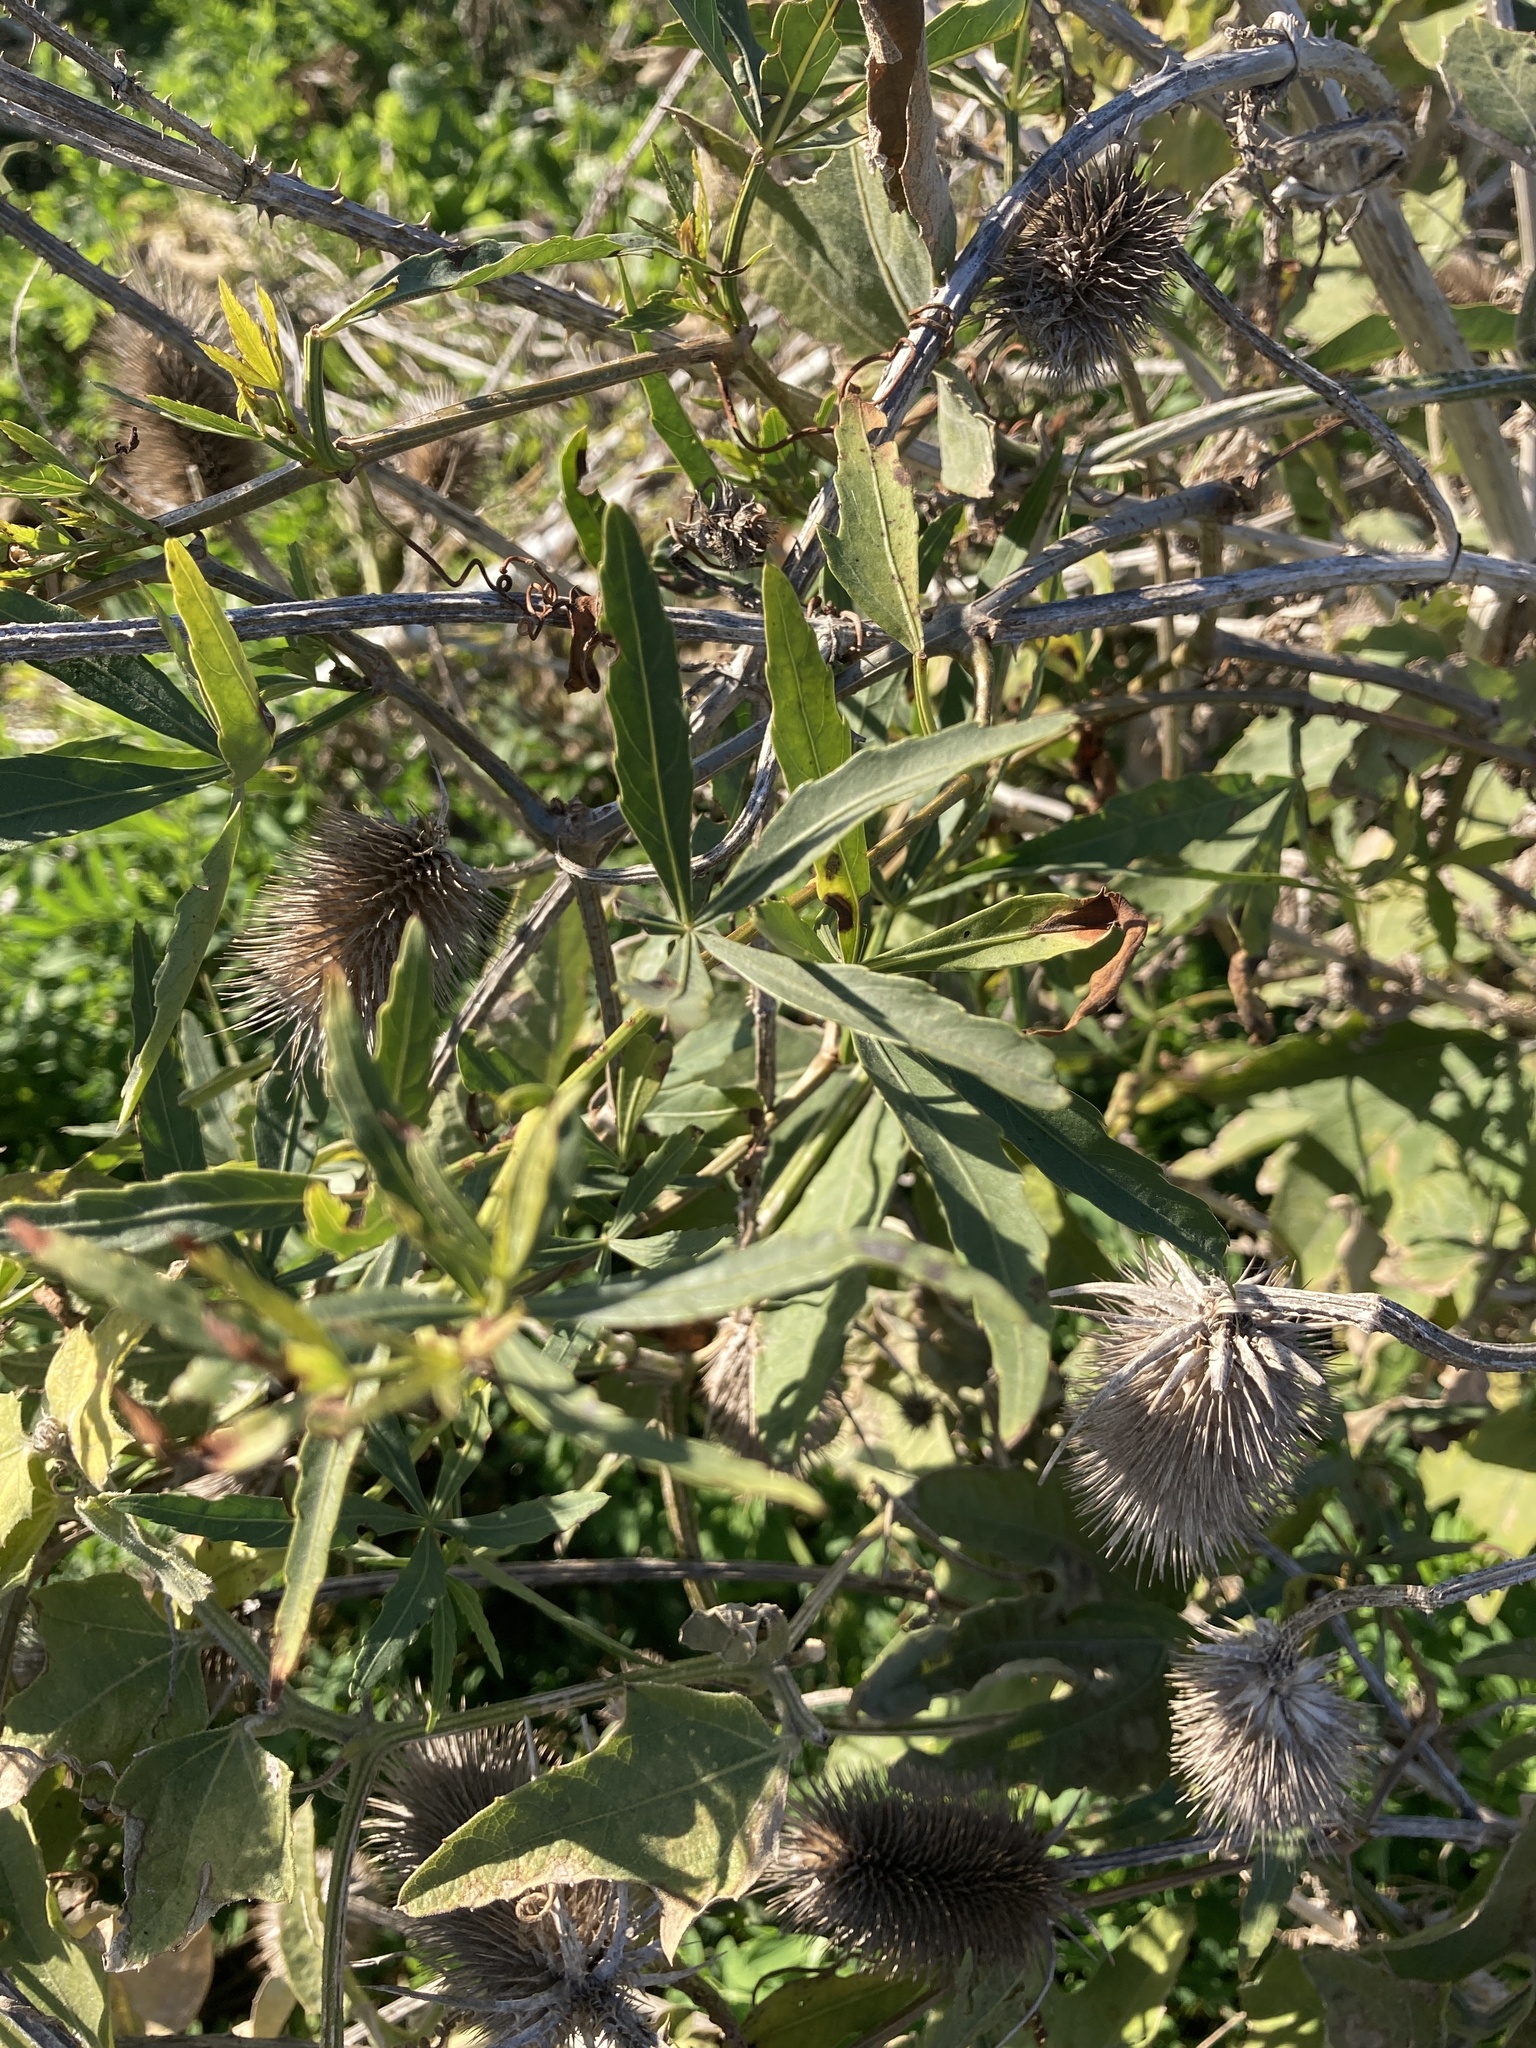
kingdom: Plantae
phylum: Tracheophyta
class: Magnoliopsida
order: Vitales
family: Vitaceae
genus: Cissus
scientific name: Cissus palmata
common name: Grape
